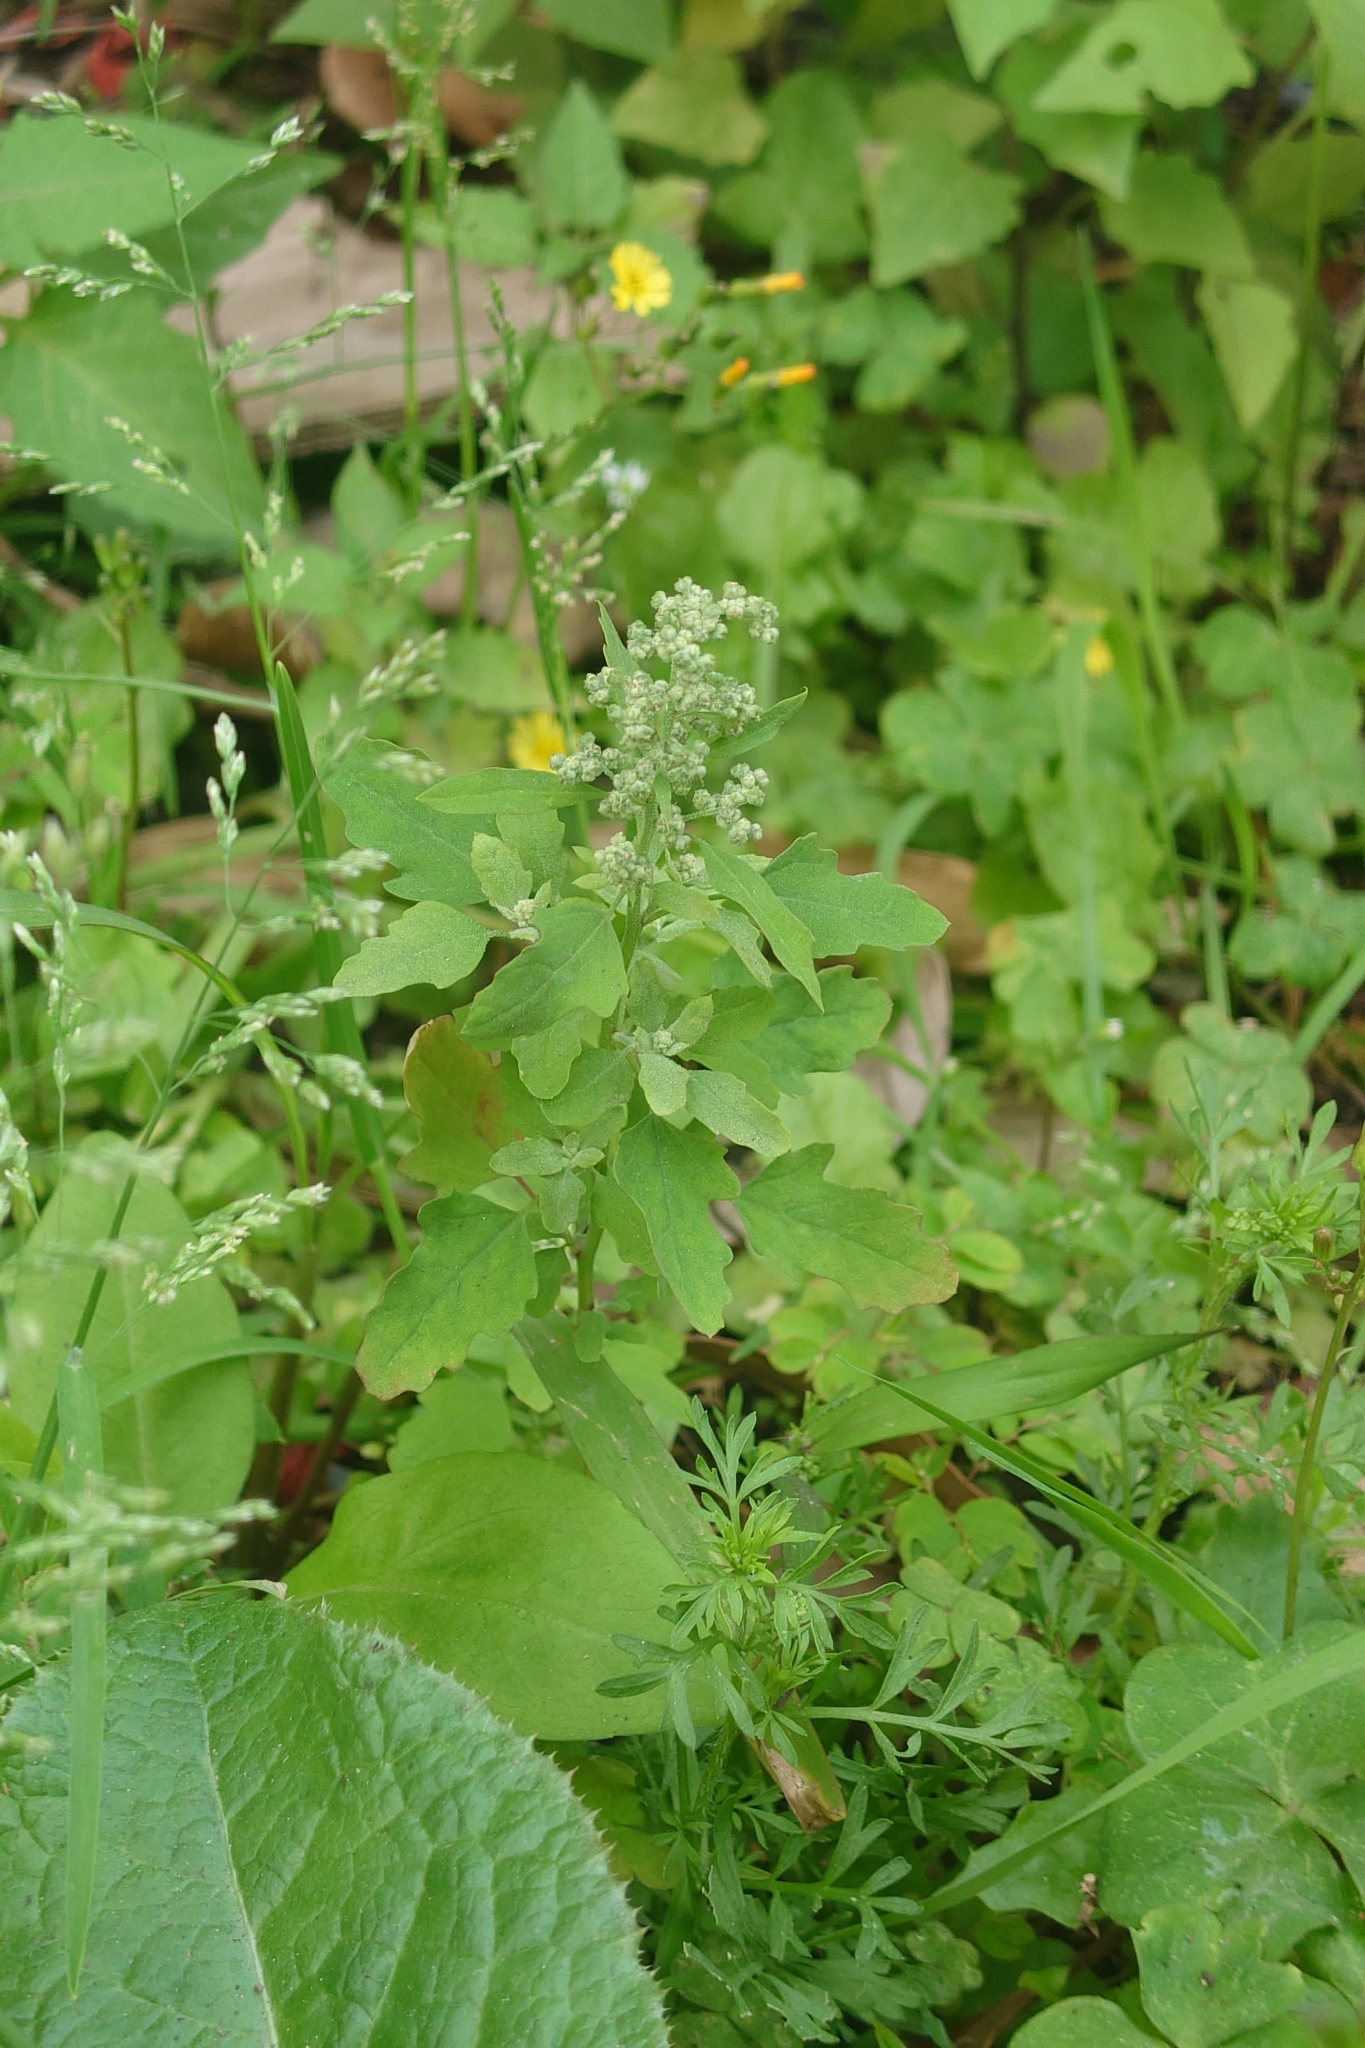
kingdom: Plantae
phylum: Tracheophyta
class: Magnoliopsida
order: Caryophyllales
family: Amaranthaceae
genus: Chenopodium
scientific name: Chenopodium ficifolium
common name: Fig-leaved goosefoot
